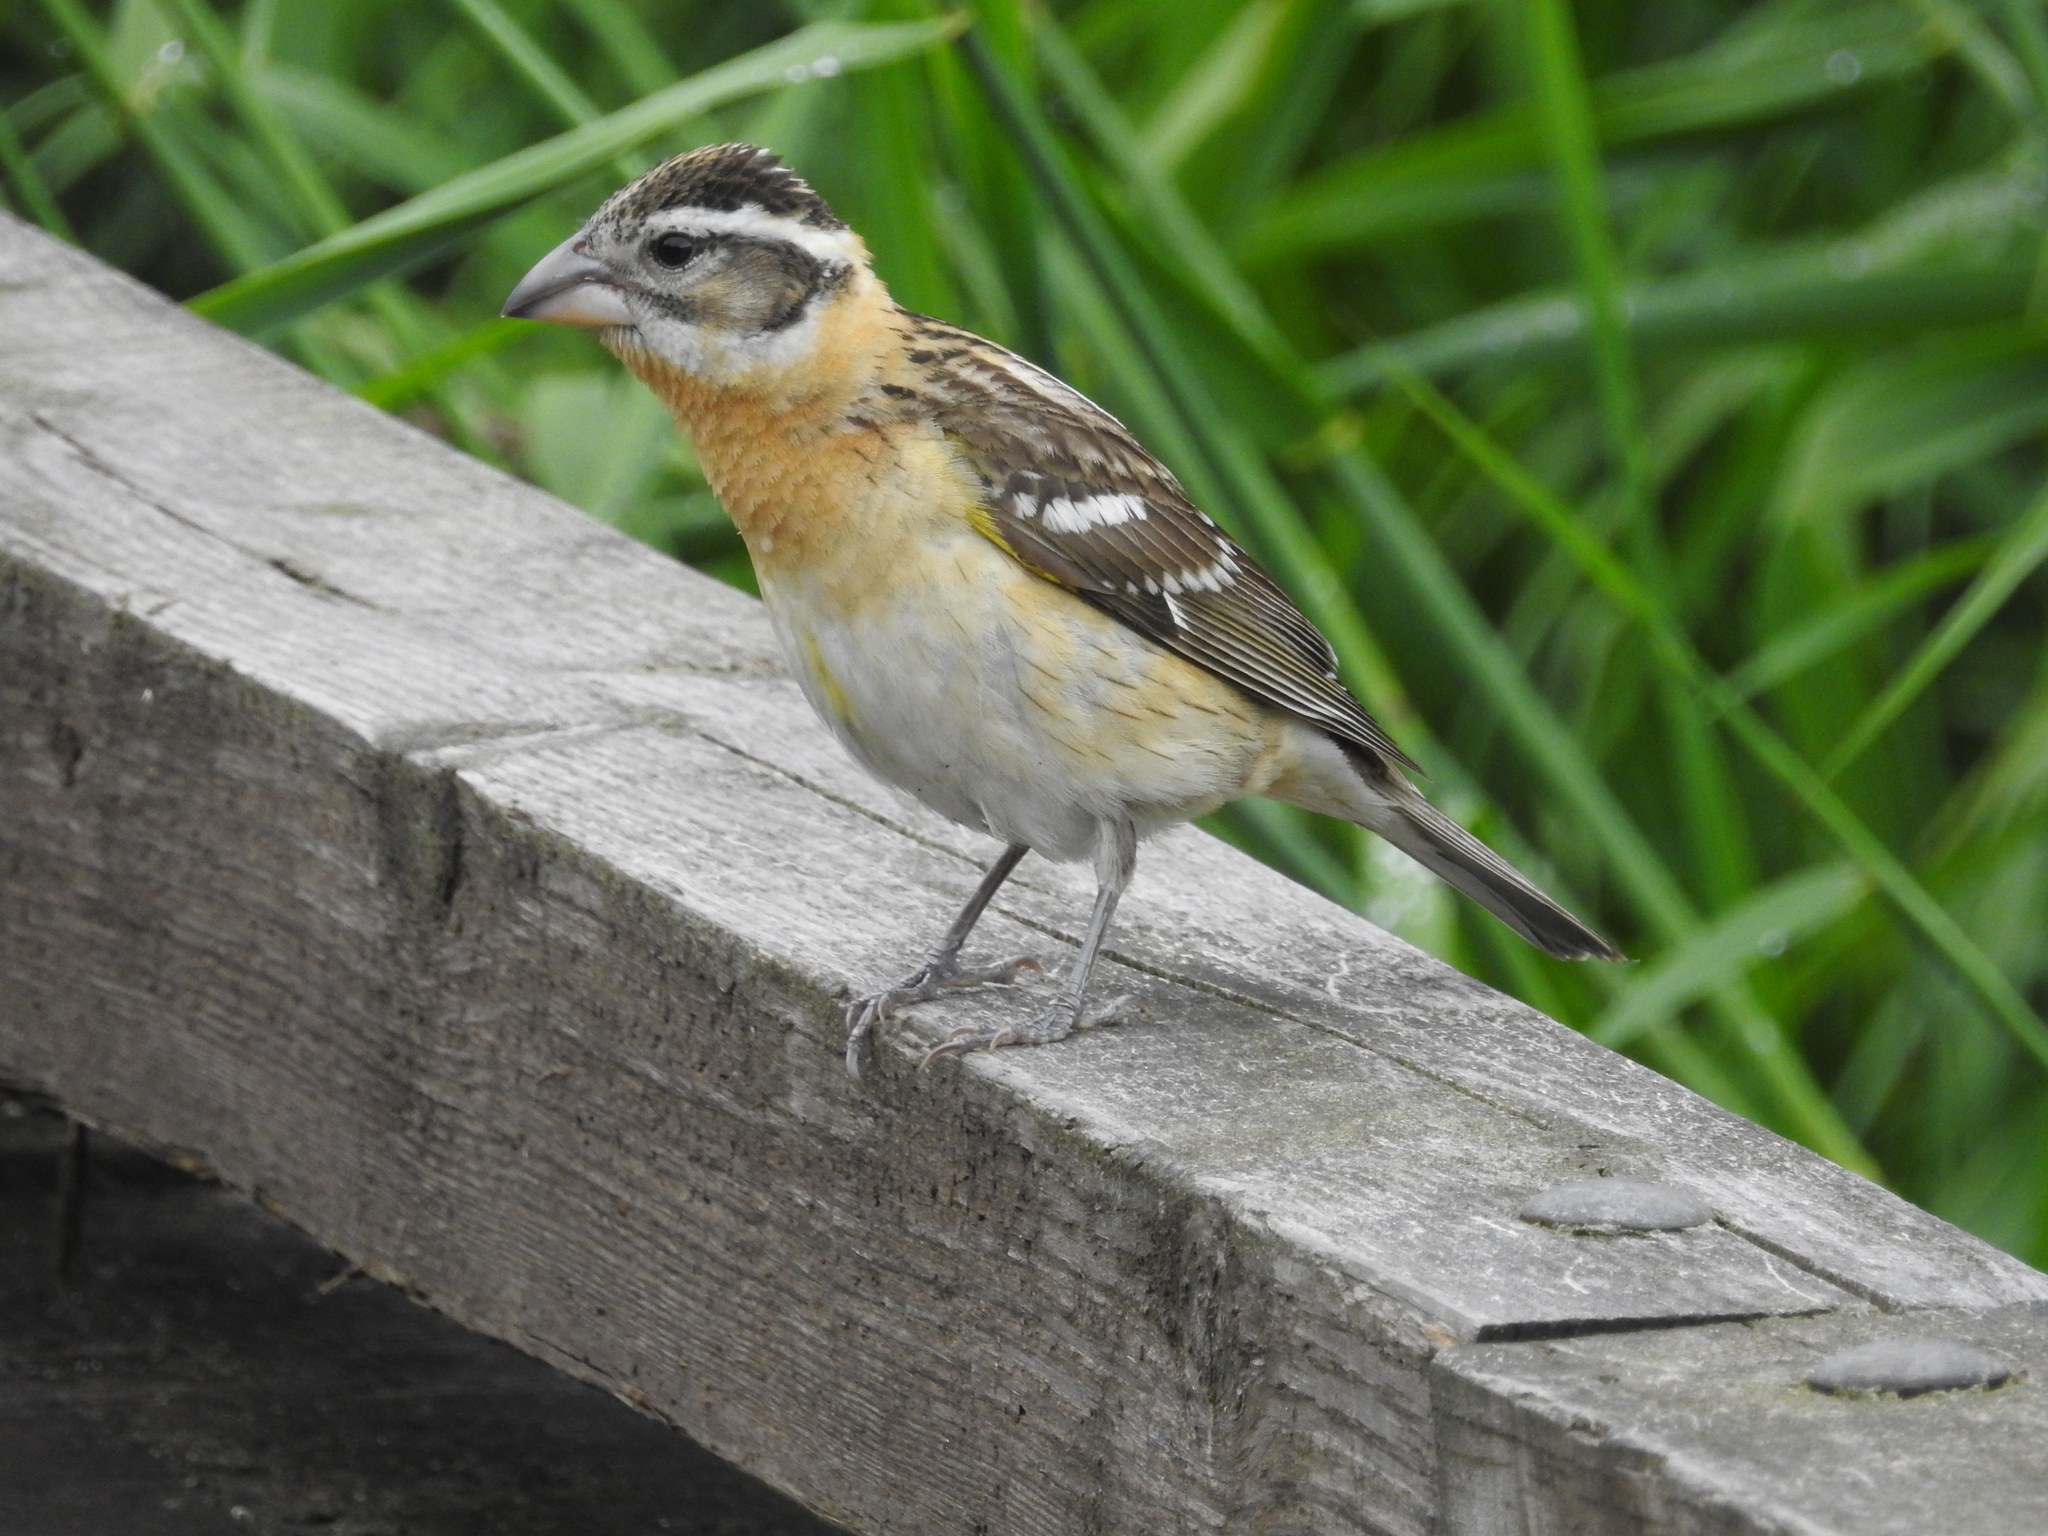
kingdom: Animalia
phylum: Chordata
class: Aves
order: Passeriformes
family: Cardinalidae
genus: Pheucticus
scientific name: Pheucticus melanocephalus
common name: Black-headed grosbeak
